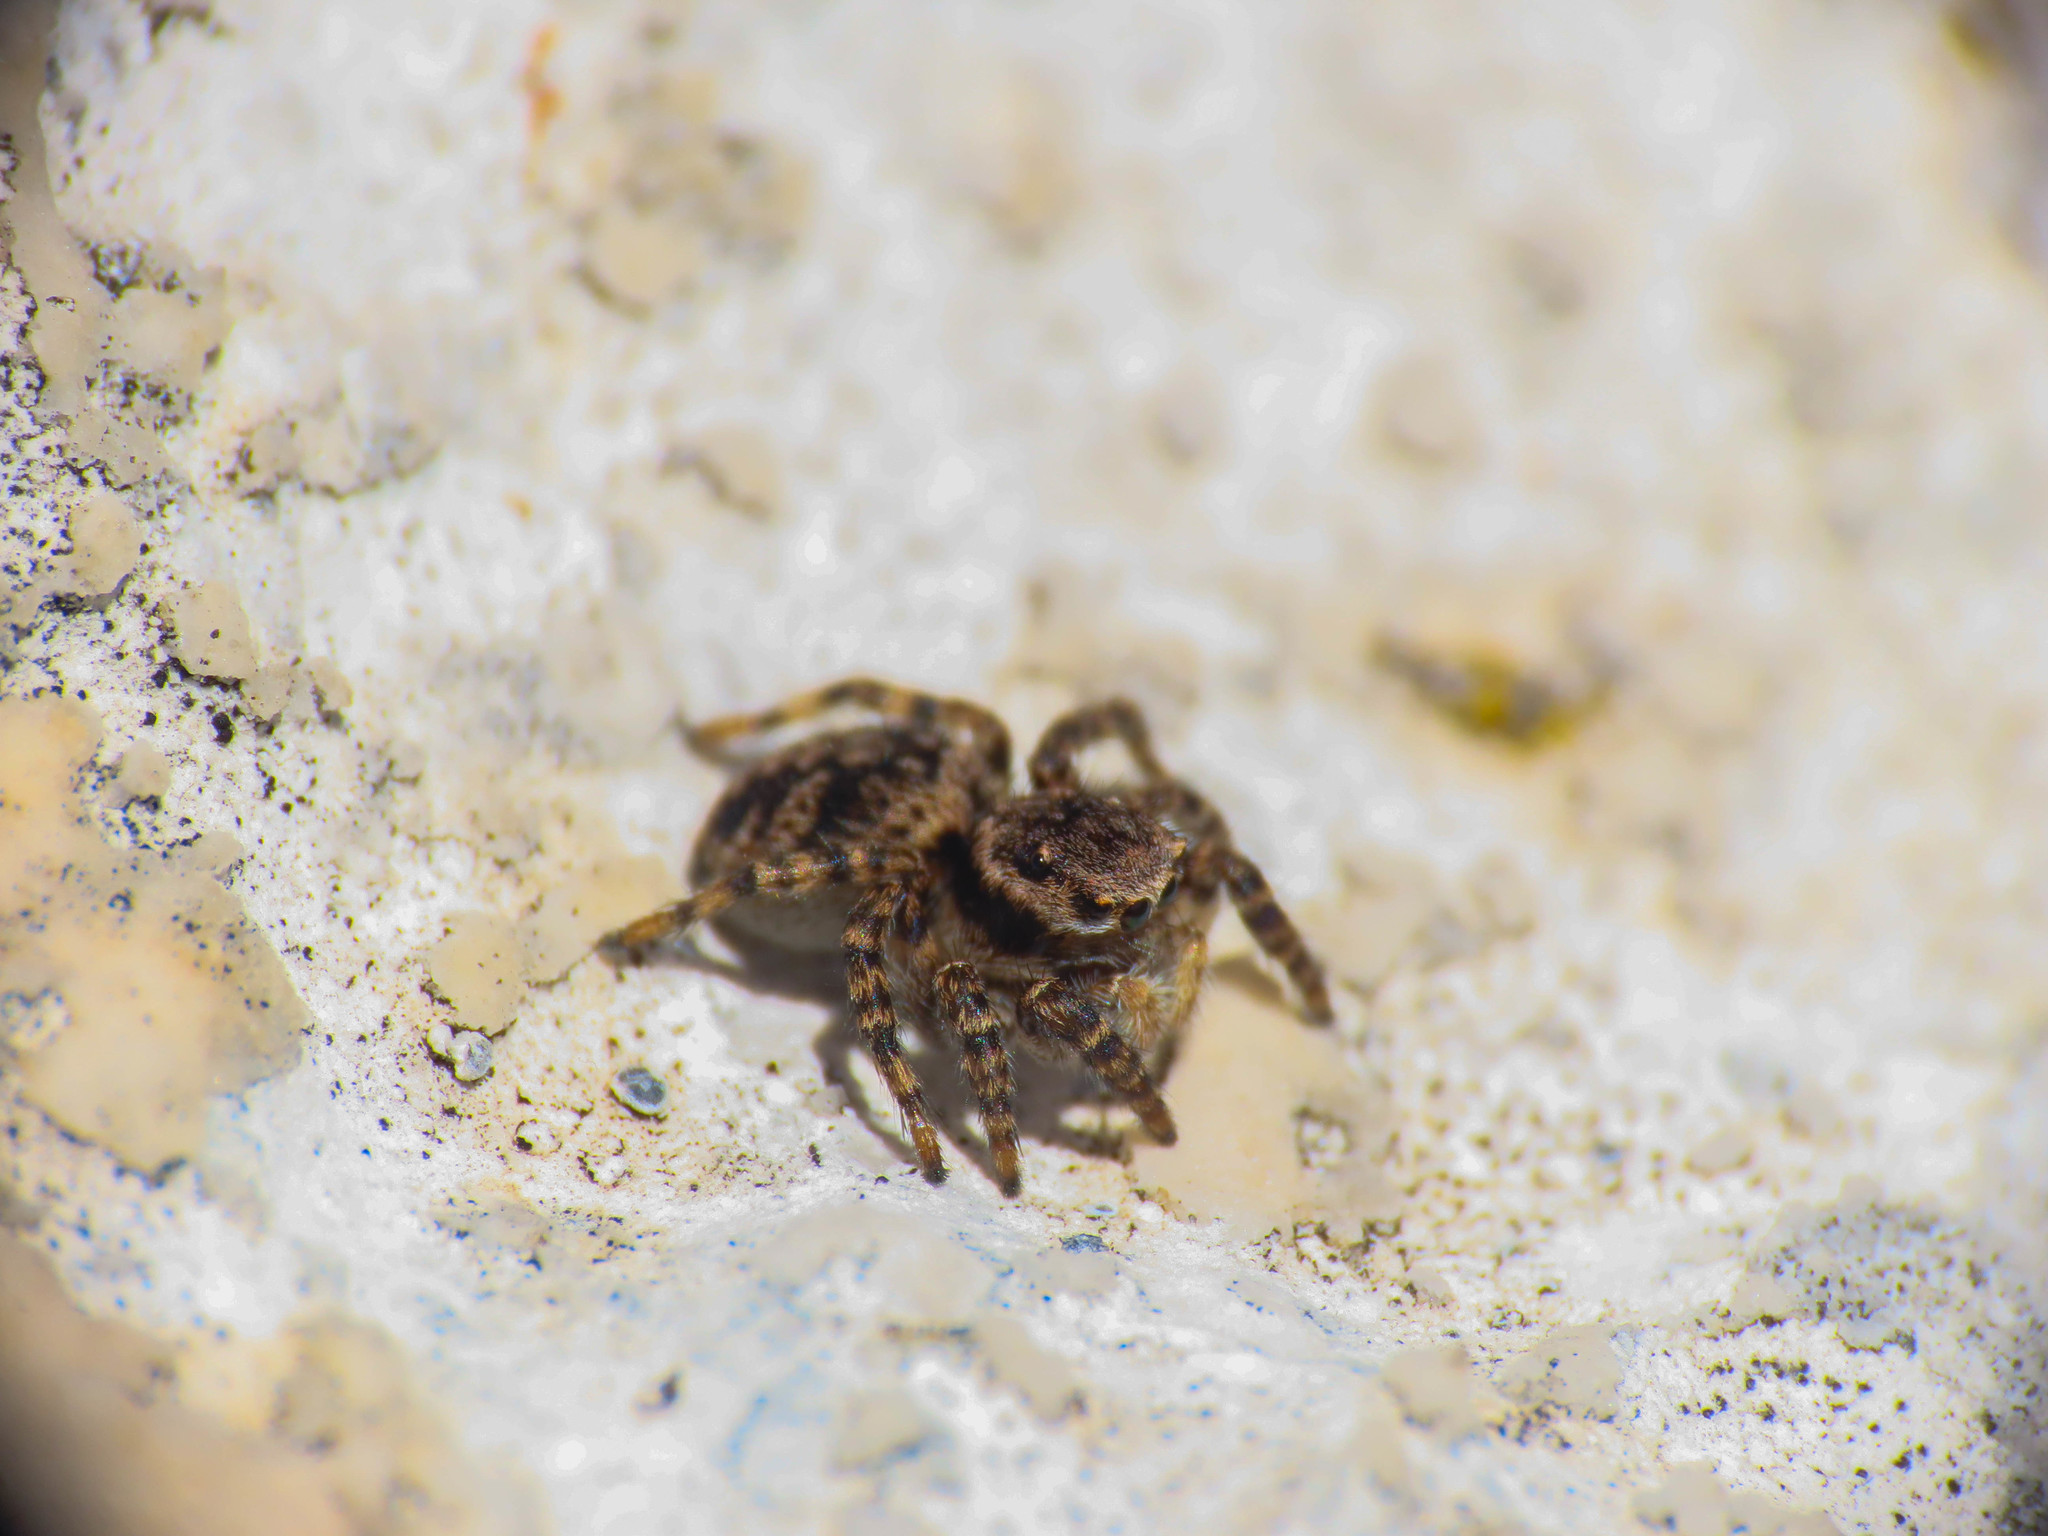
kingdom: Animalia
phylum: Arthropoda
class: Arachnida
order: Araneae
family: Salticidae
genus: Aelurillus
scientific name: Aelurillus v-insignitus
